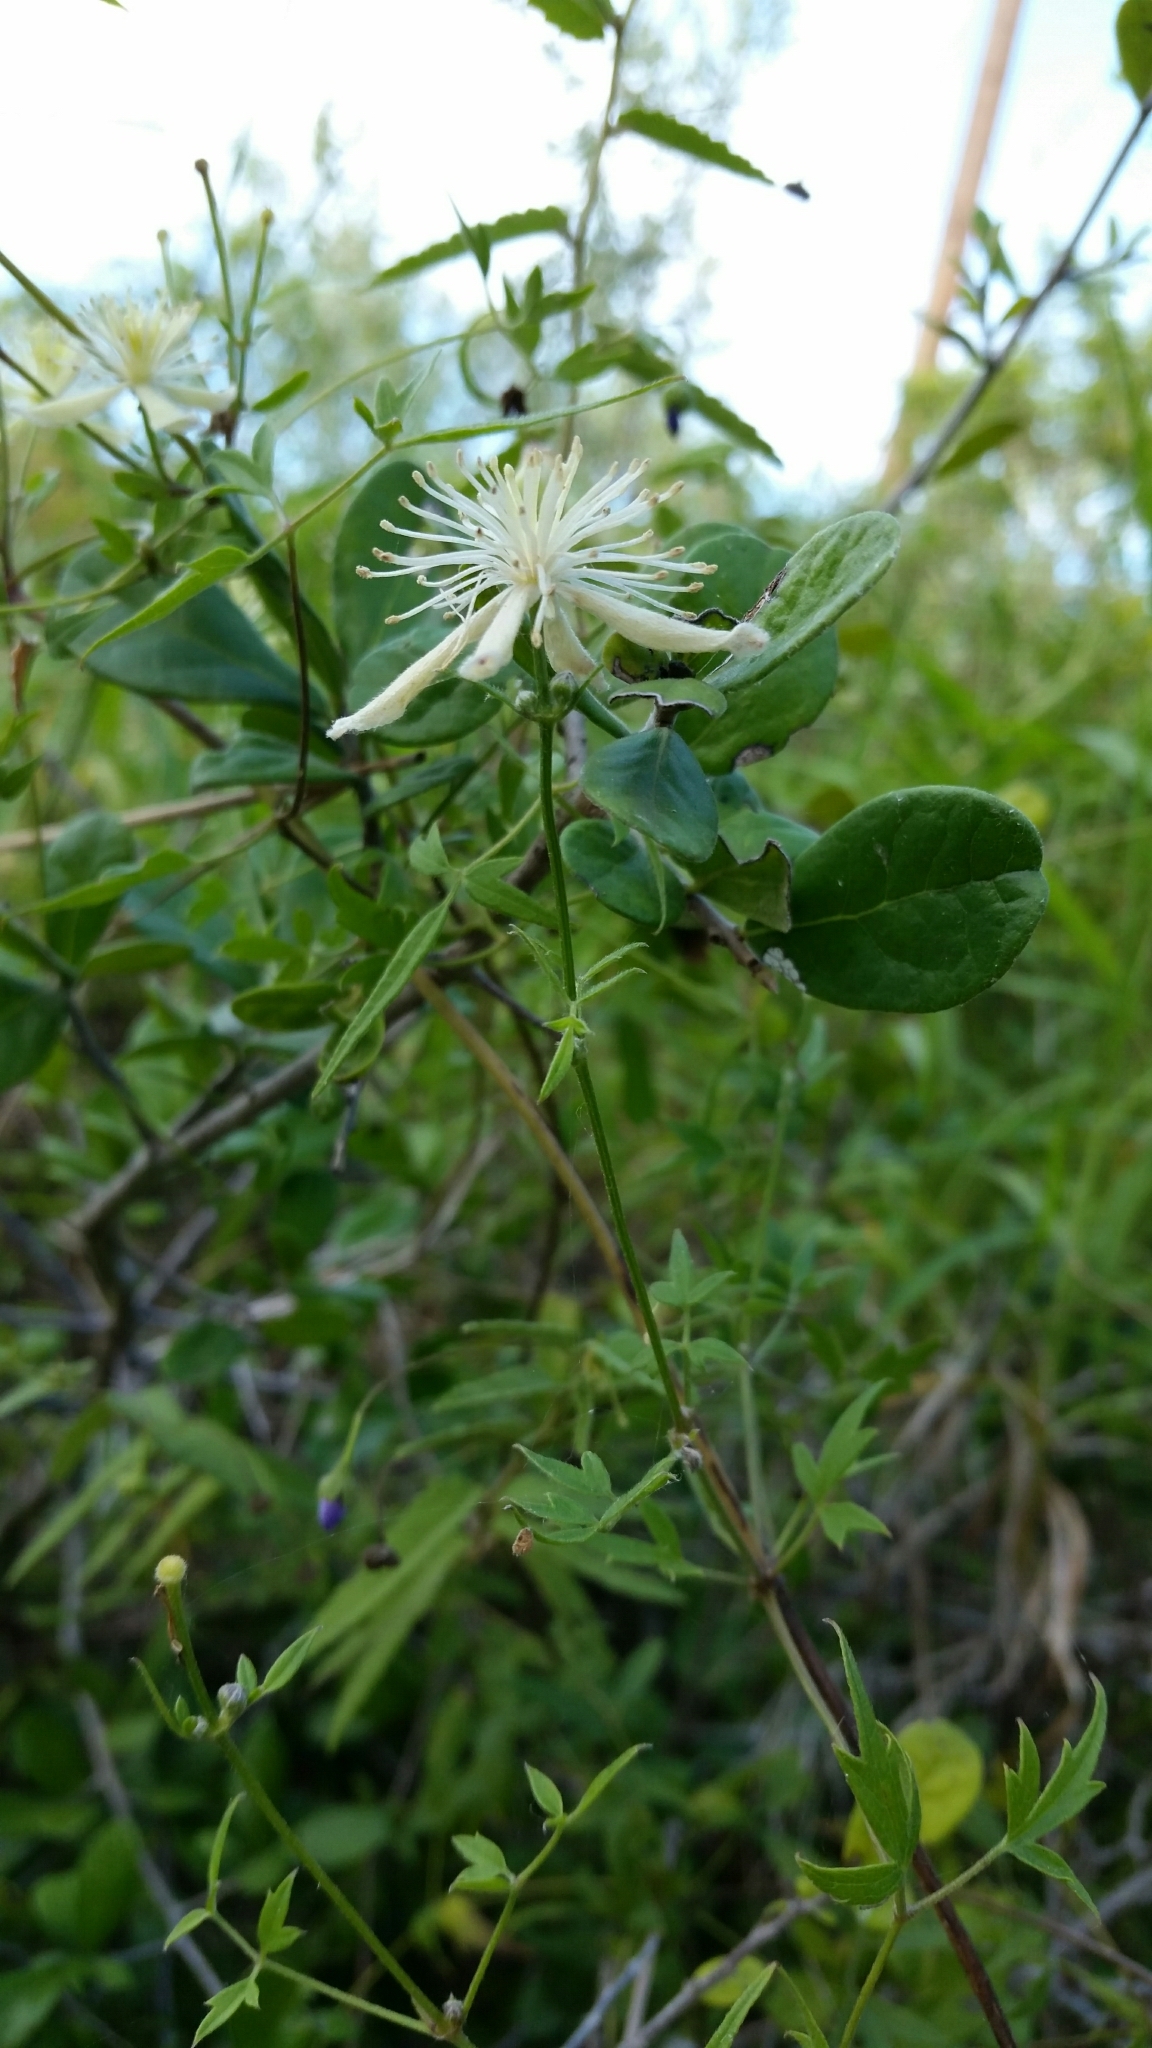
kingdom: Plantae
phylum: Tracheophyta
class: Magnoliopsida
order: Ranunculales
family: Ranunculaceae
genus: Clematis
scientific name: Clematis drummondii
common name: Texas virgin's bower
